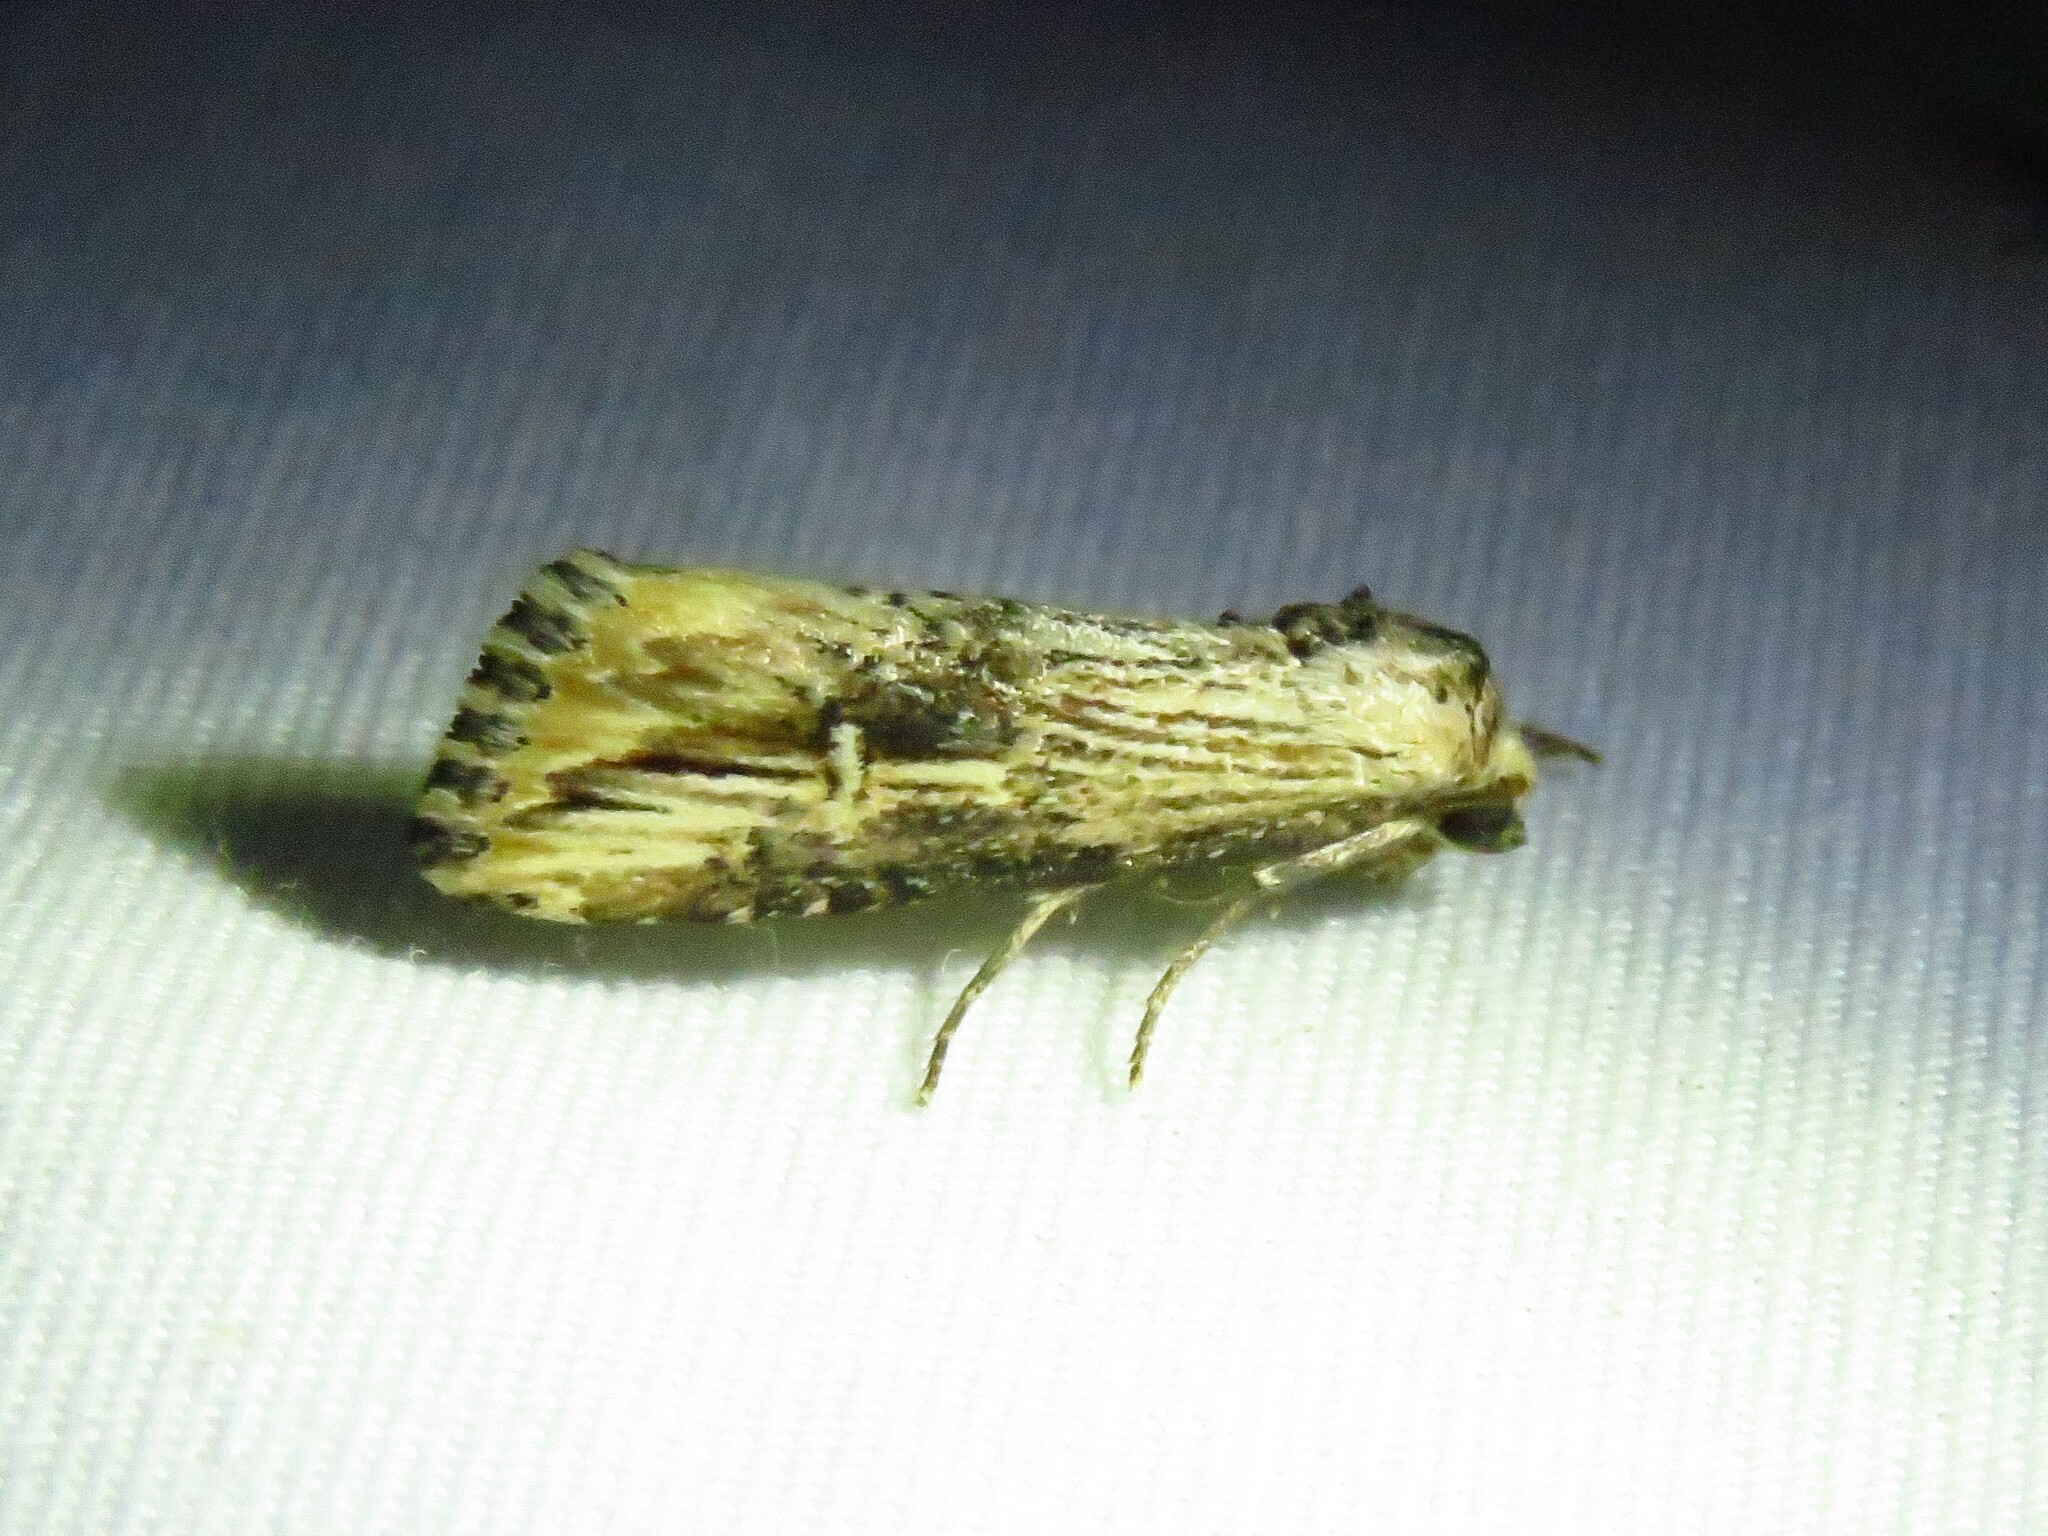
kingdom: Animalia
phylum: Arthropoda
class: Insecta
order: Lepidoptera
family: Noctuidae
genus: Crambodes
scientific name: Crambodes talidiformis
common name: Verbena moth
